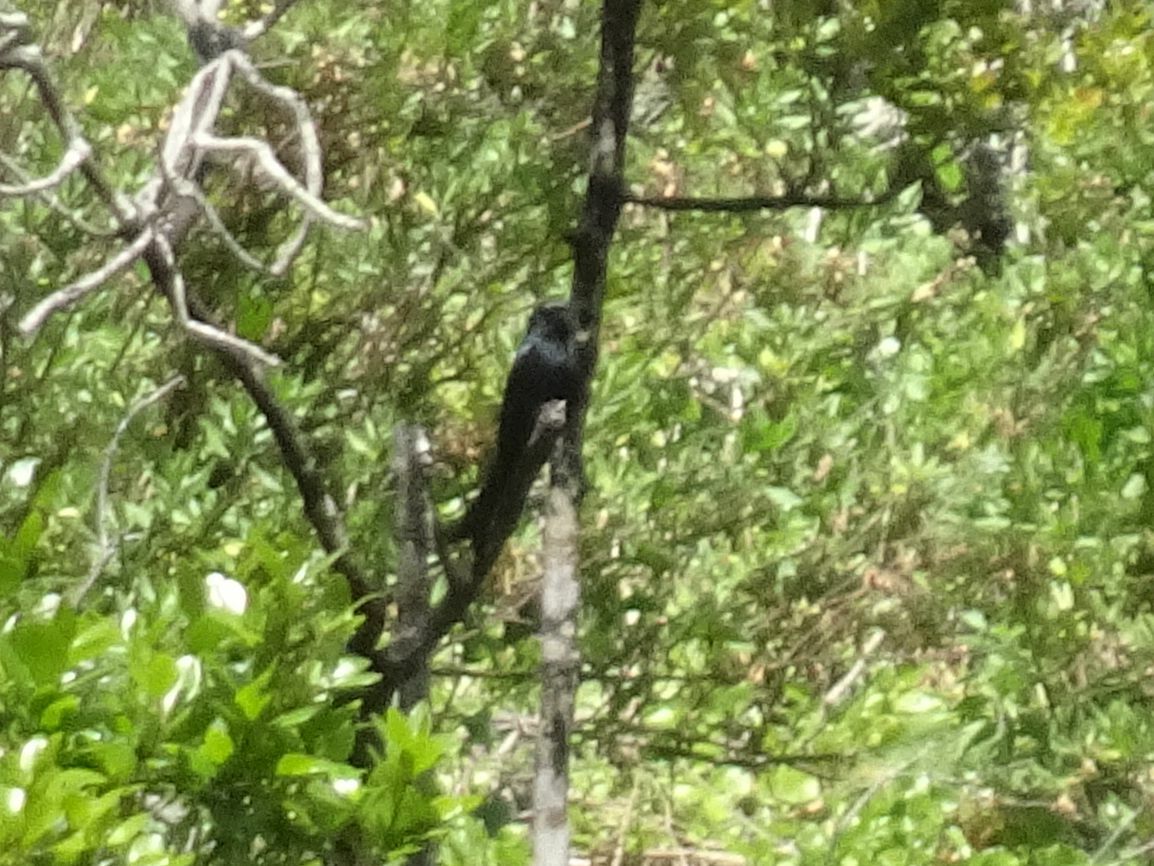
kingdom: Animalia
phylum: Chordata
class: Aves
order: Passeriformes
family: Dicruridae
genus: Dicrurus
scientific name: Dicrurus adsimilis
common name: Fork-tailed drongo
